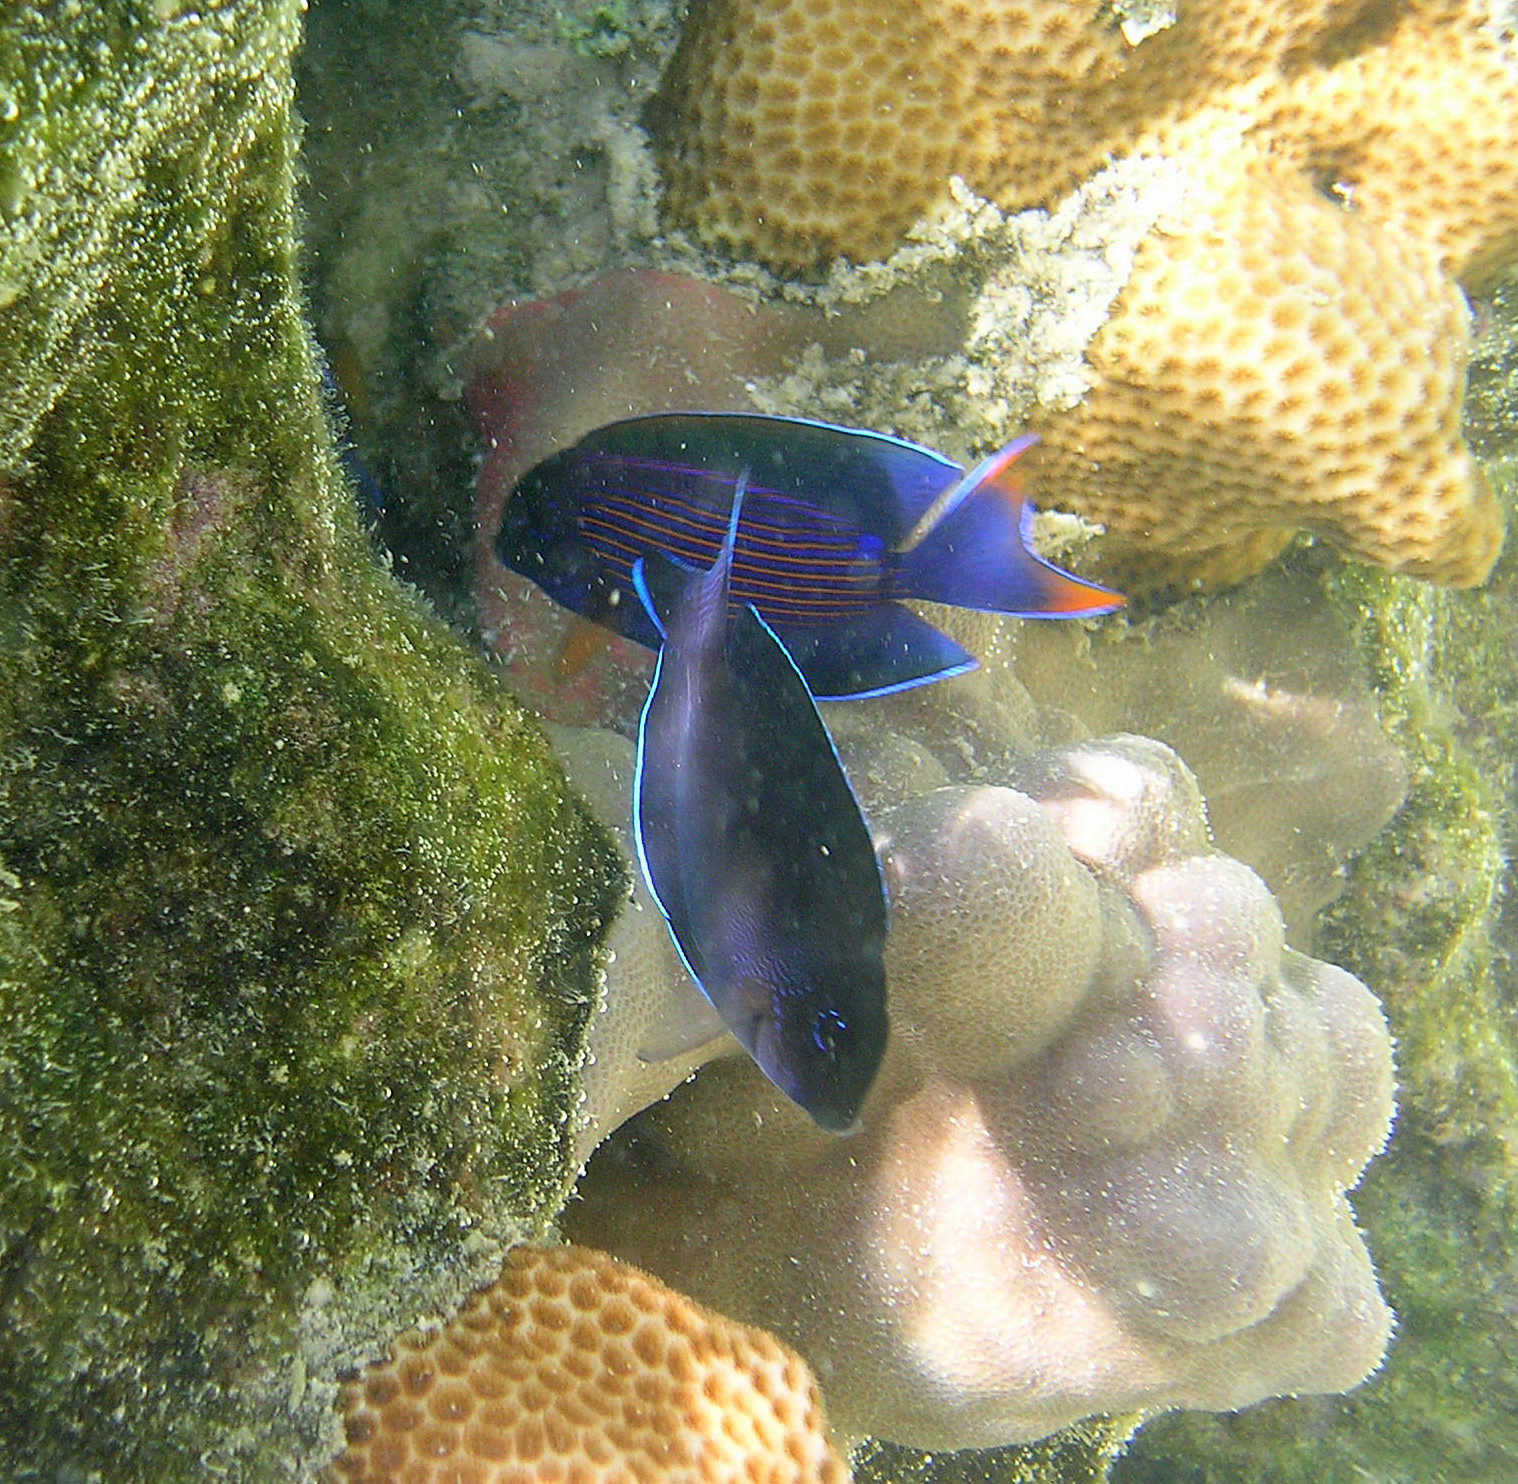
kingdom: Animalia
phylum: Chordata
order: Perciformes
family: Acanthuridae
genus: Ctenochaetus
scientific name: Ctenochaetus striatus
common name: Bristle-toothed surgeonfish
